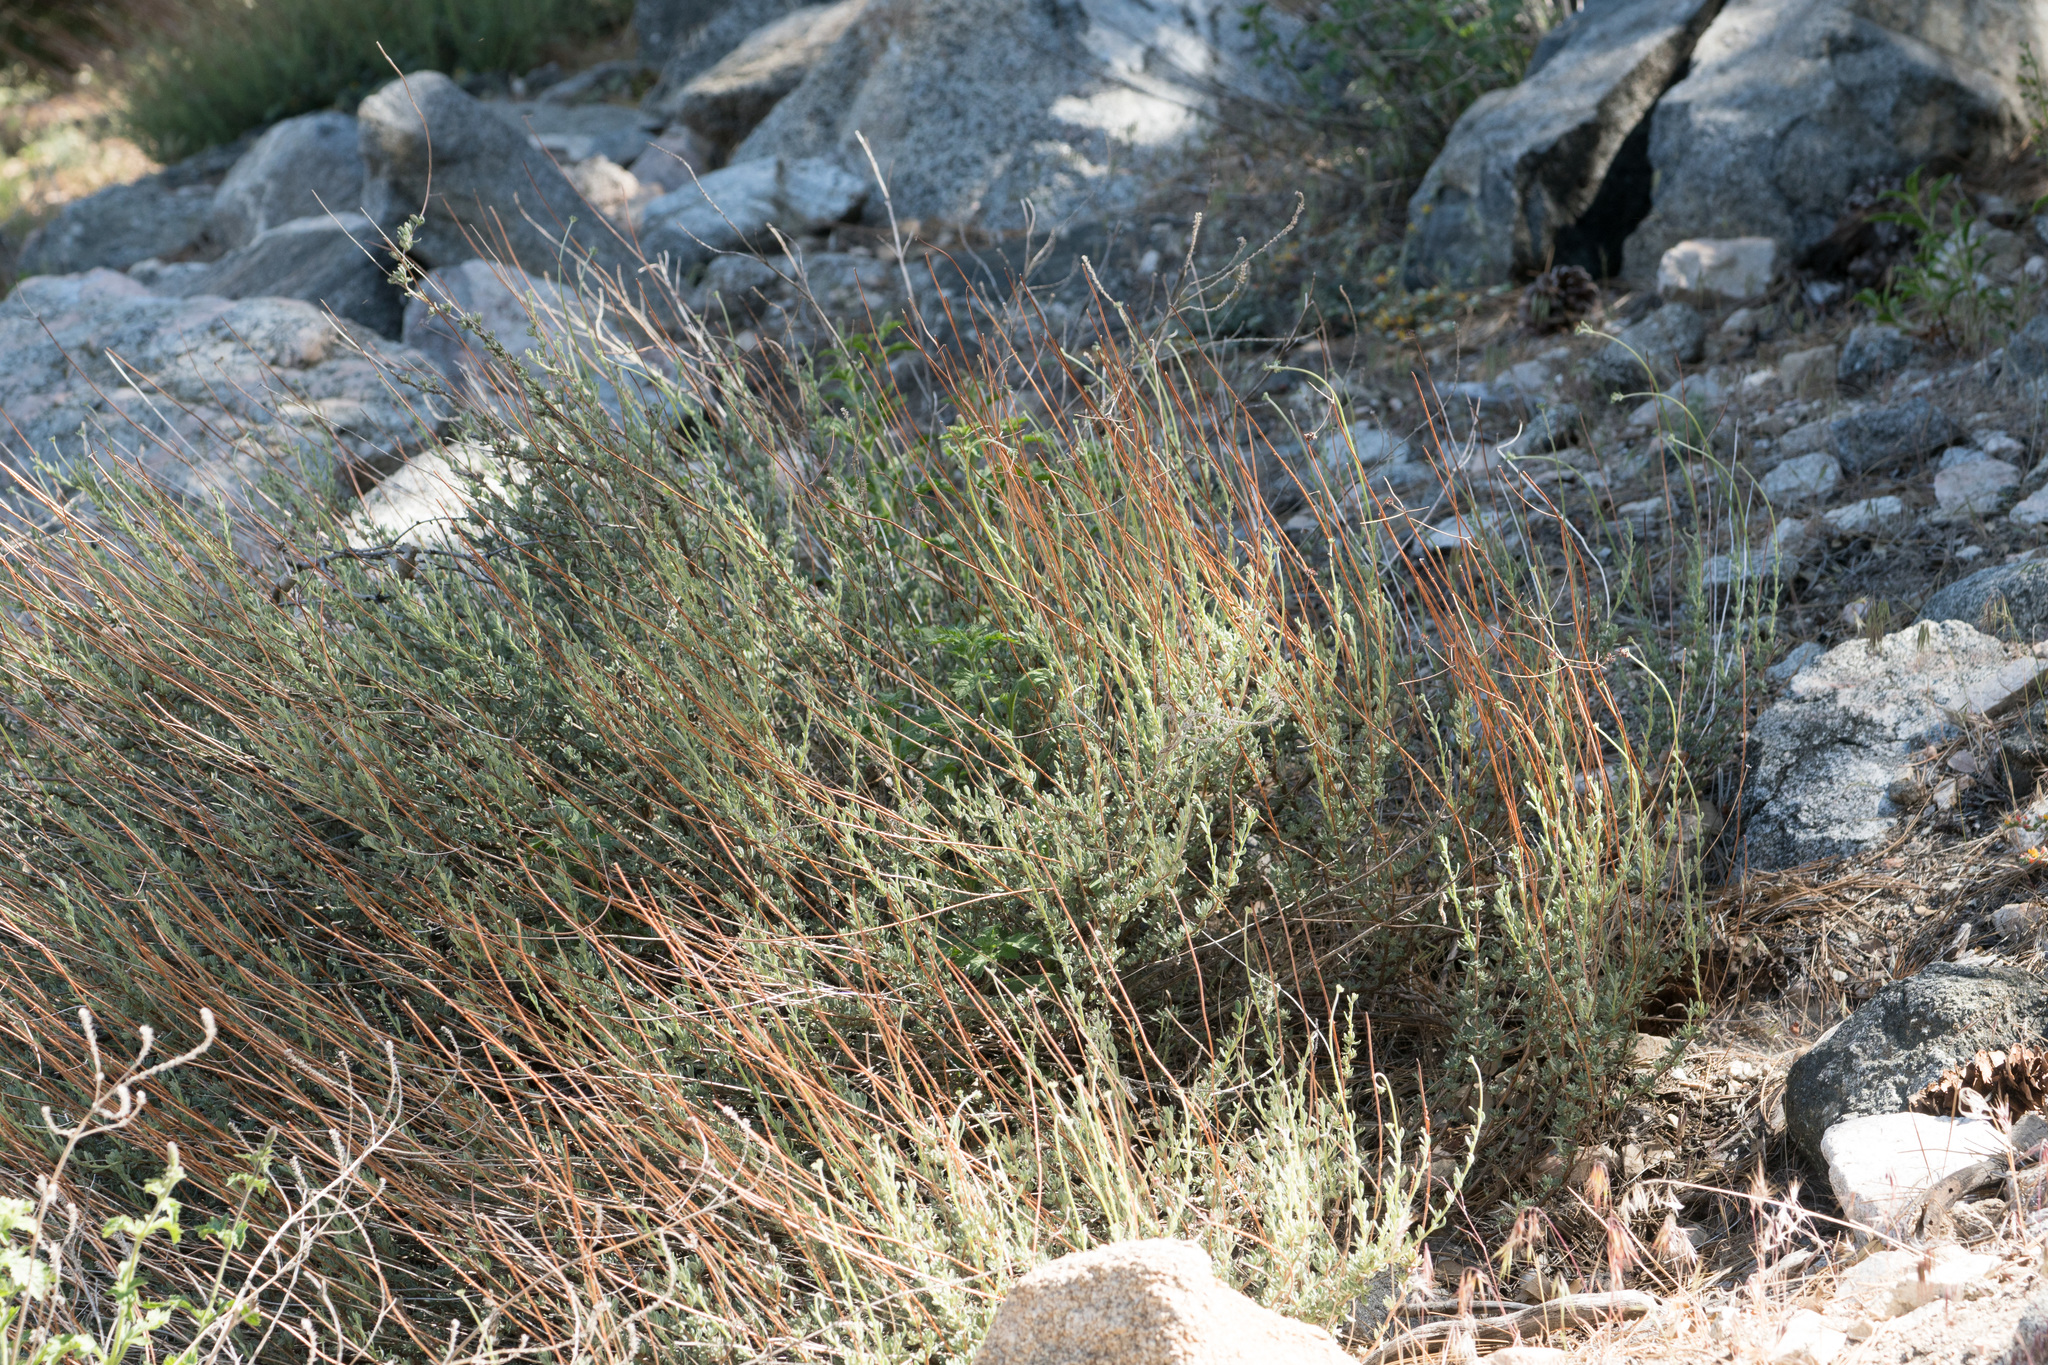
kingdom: Plantae
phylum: Tracheophyta
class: Magnoliopsida
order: Caryophyllales
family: Polygonaceae
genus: Eriogonum
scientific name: Eriogonum fasciculatum
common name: California wild buckwheat
